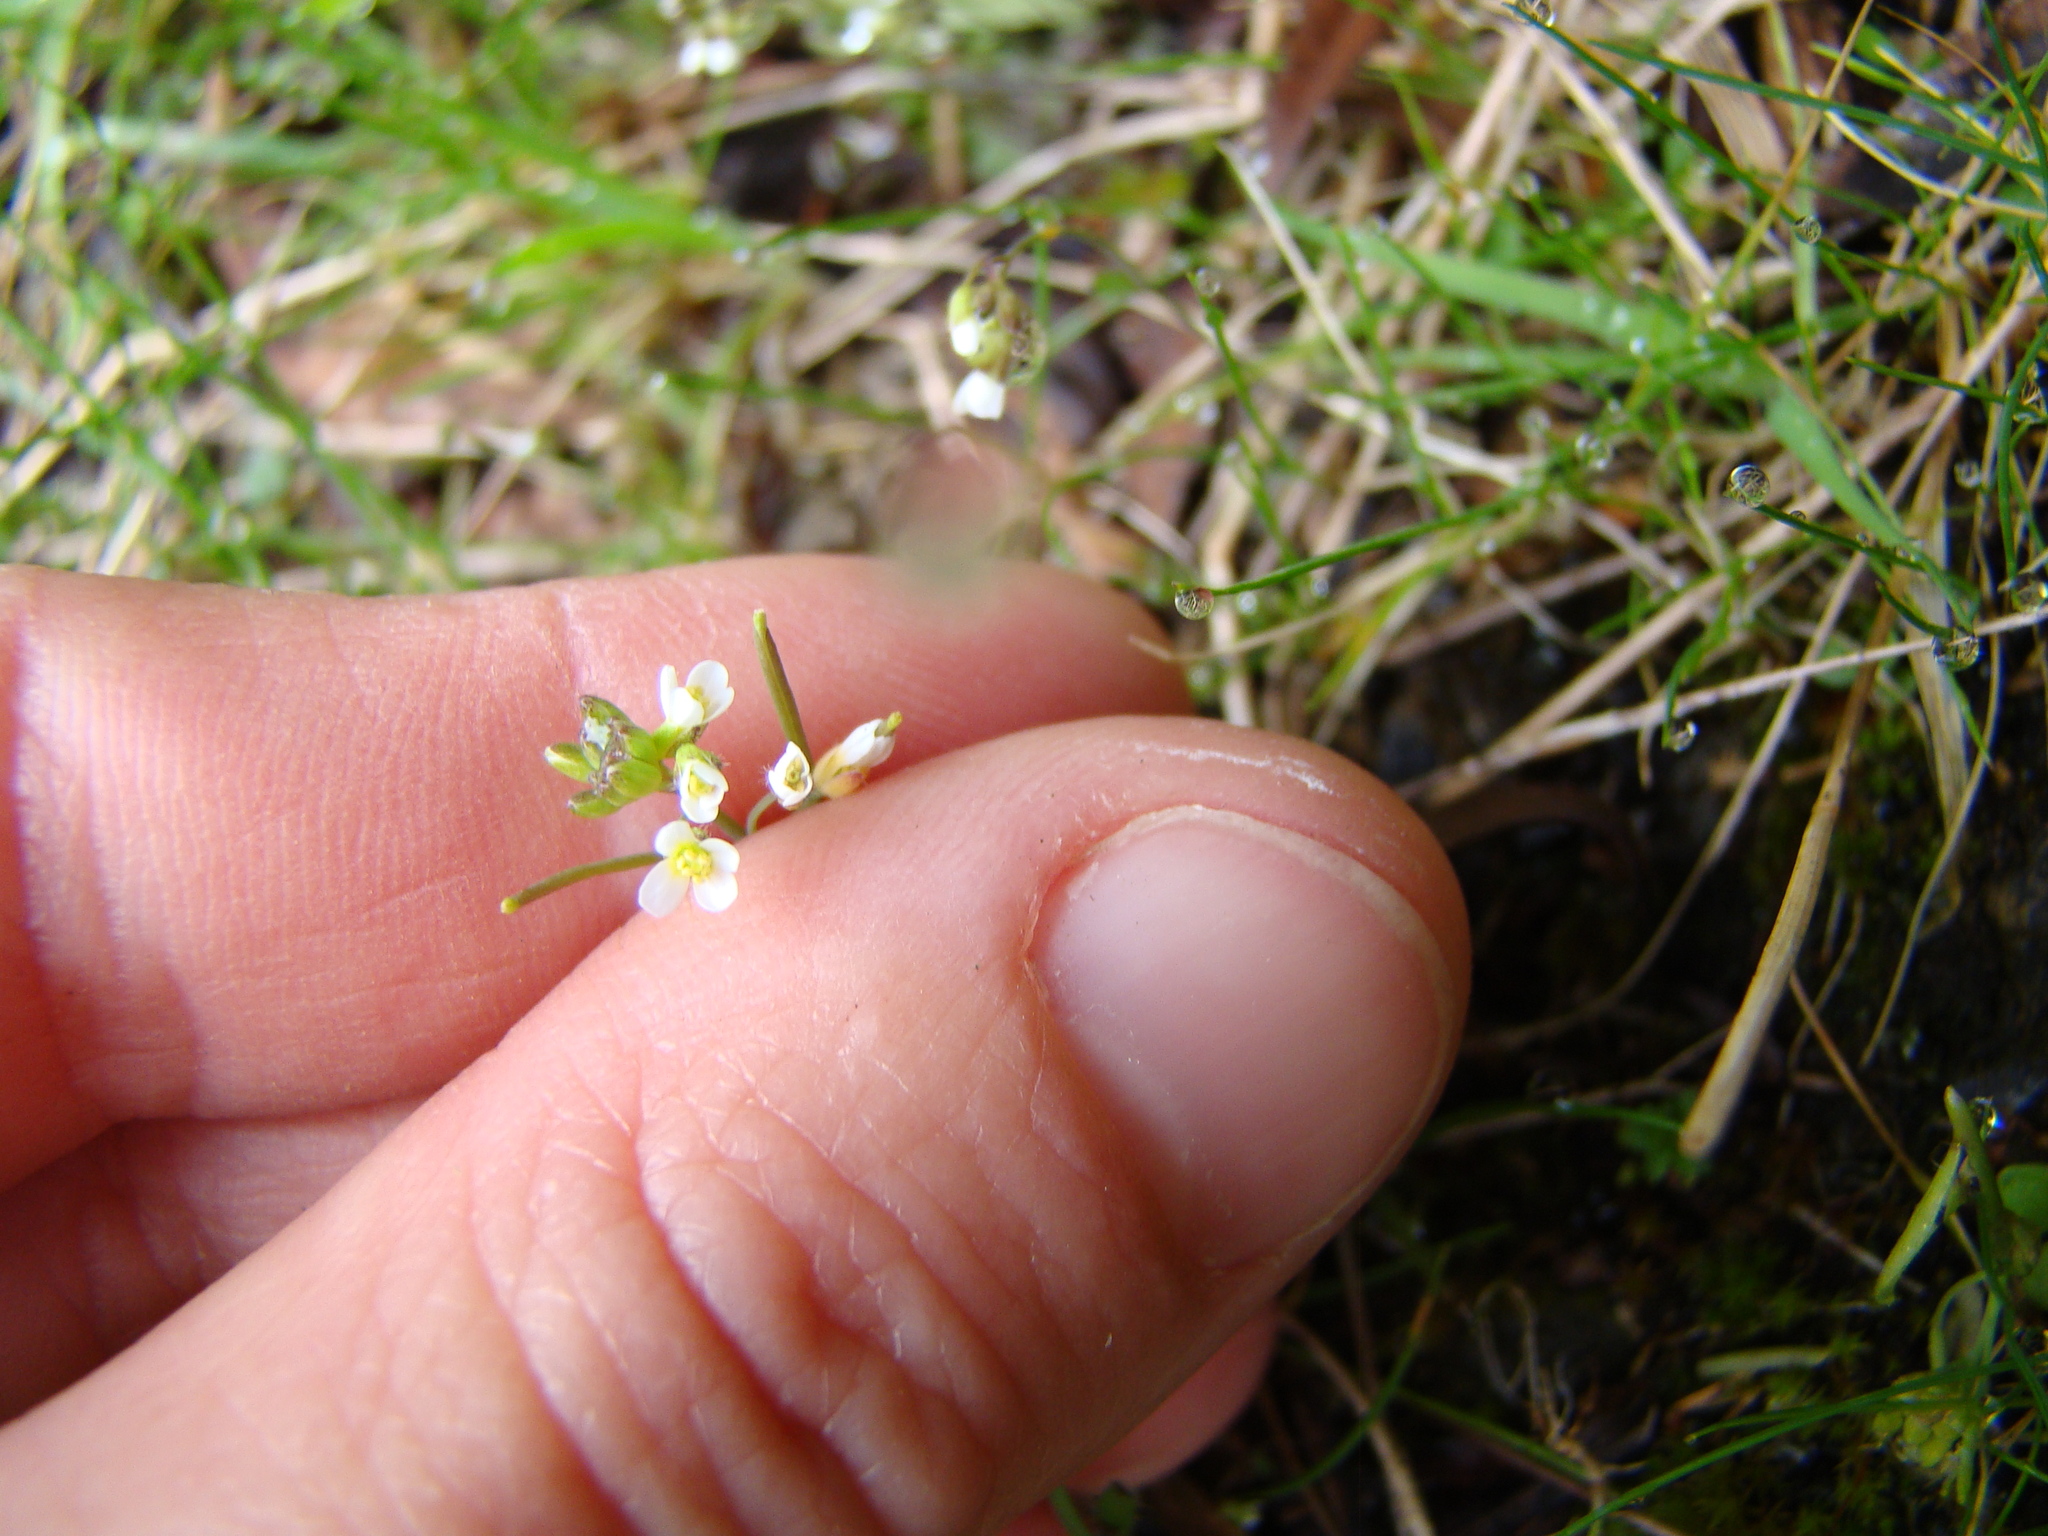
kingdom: Plantae
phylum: Tracheophyta
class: Magnoliopsida
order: Brassicales
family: Brassicaceae
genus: Arabidopsis
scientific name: Arabidopsis thaliana
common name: Thale cress
